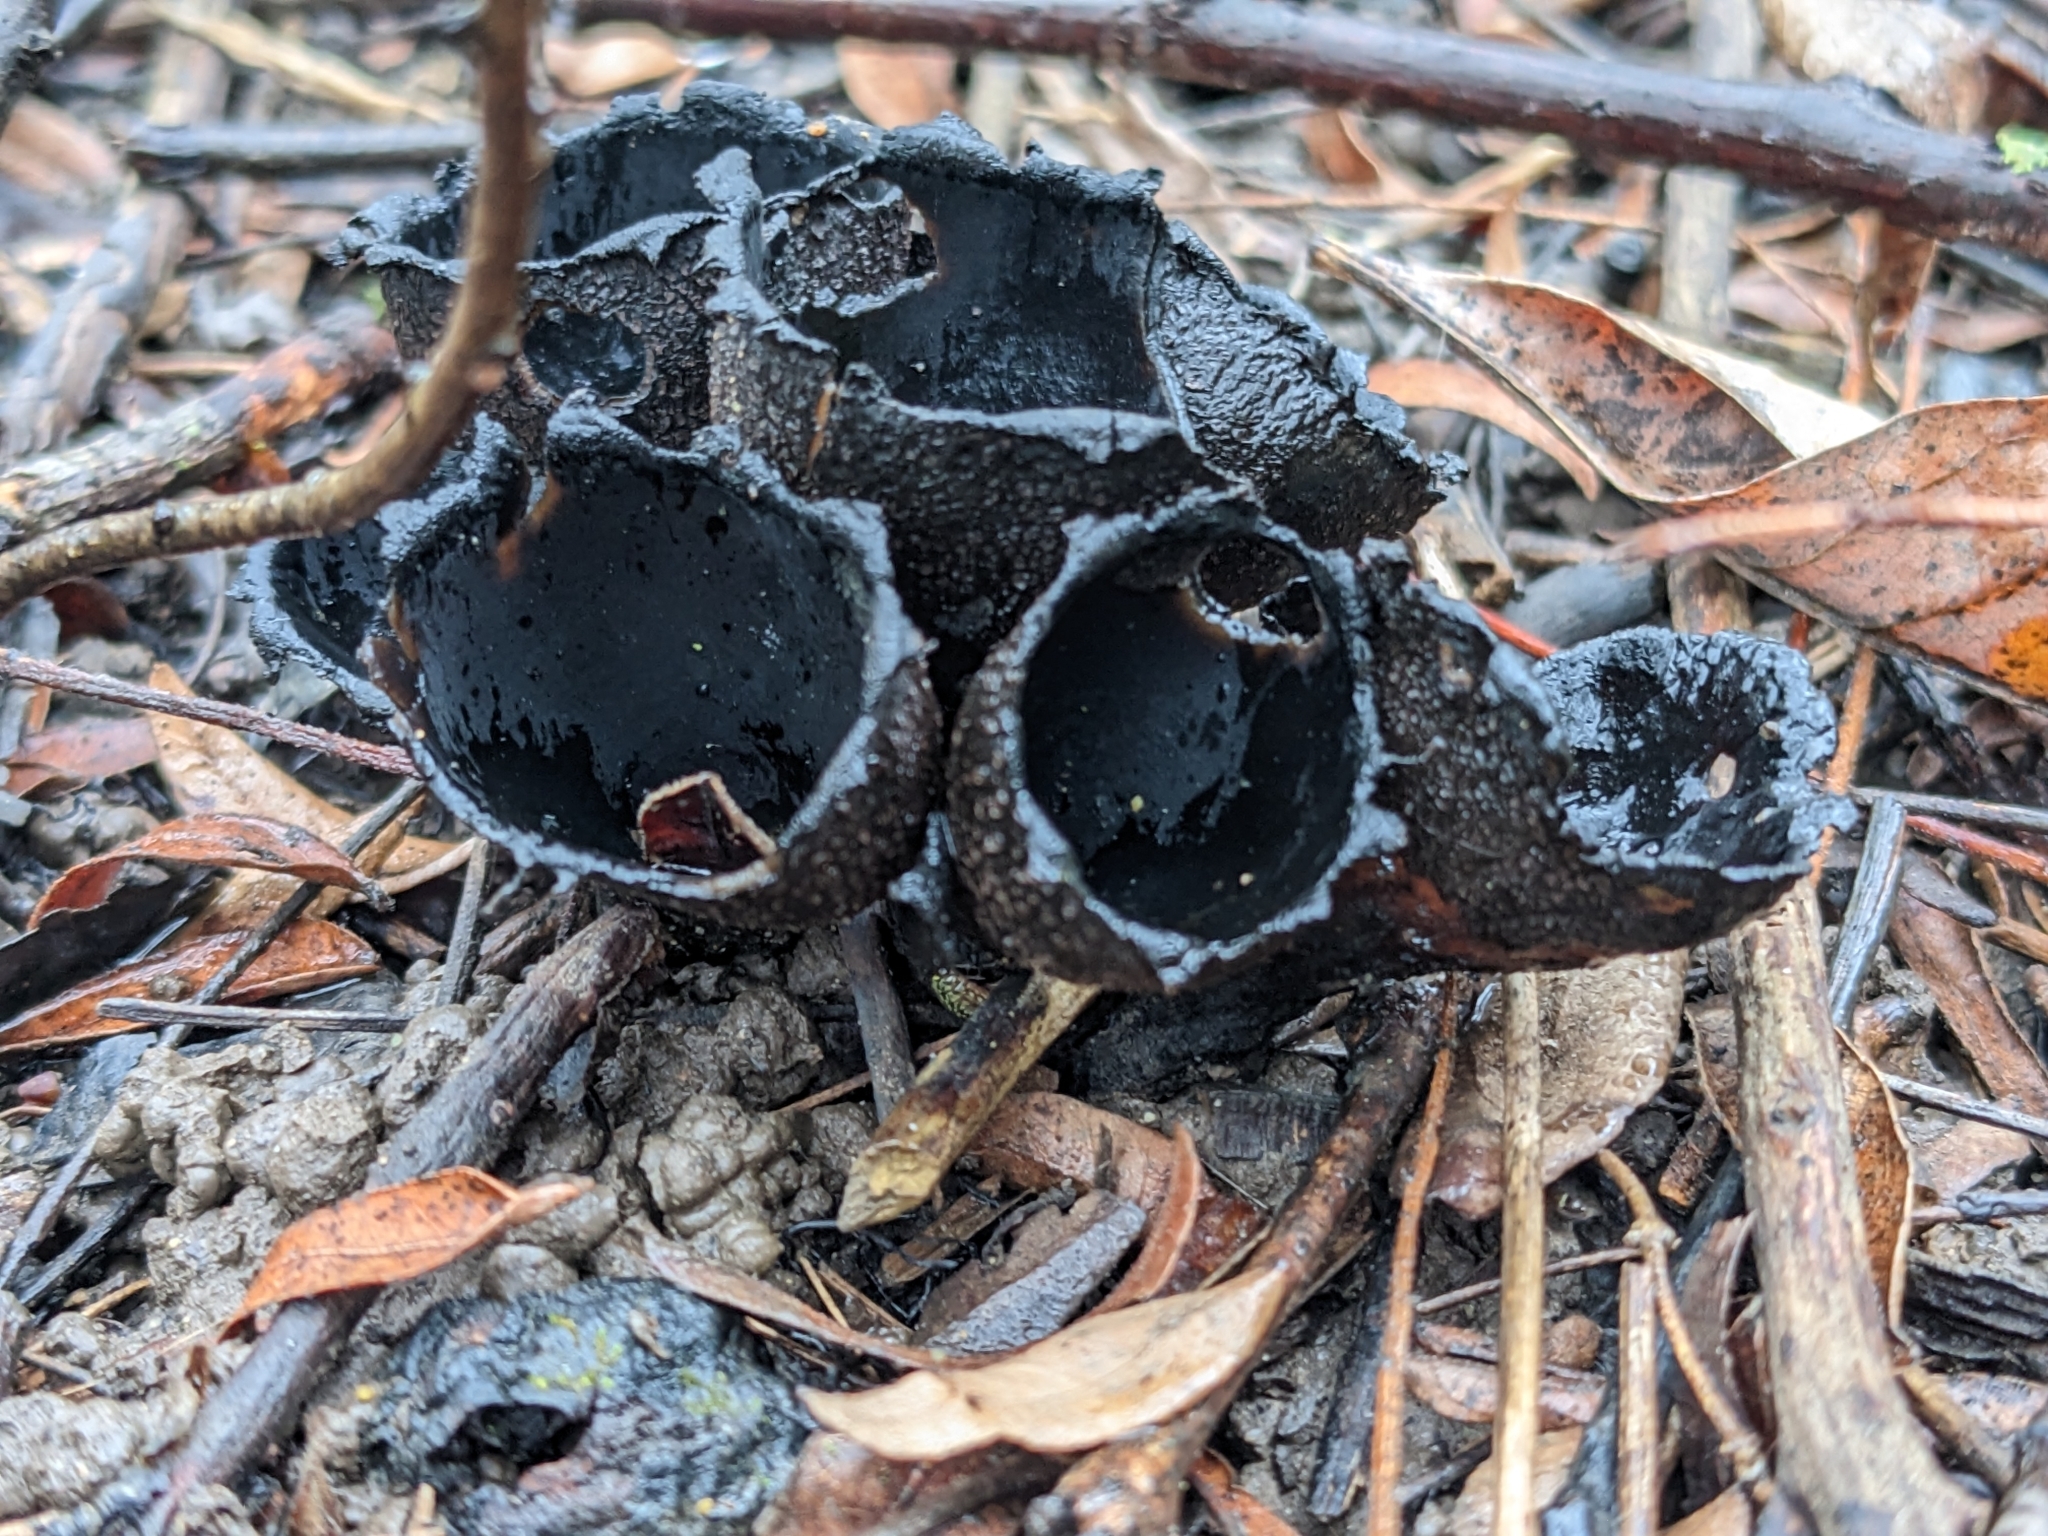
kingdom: Fungi
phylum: Ascomycota
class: Pezizomycetes
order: Pezizales
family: Sarcosomataceae
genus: Urnula
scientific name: Urnula craterium
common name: Devil's urn
